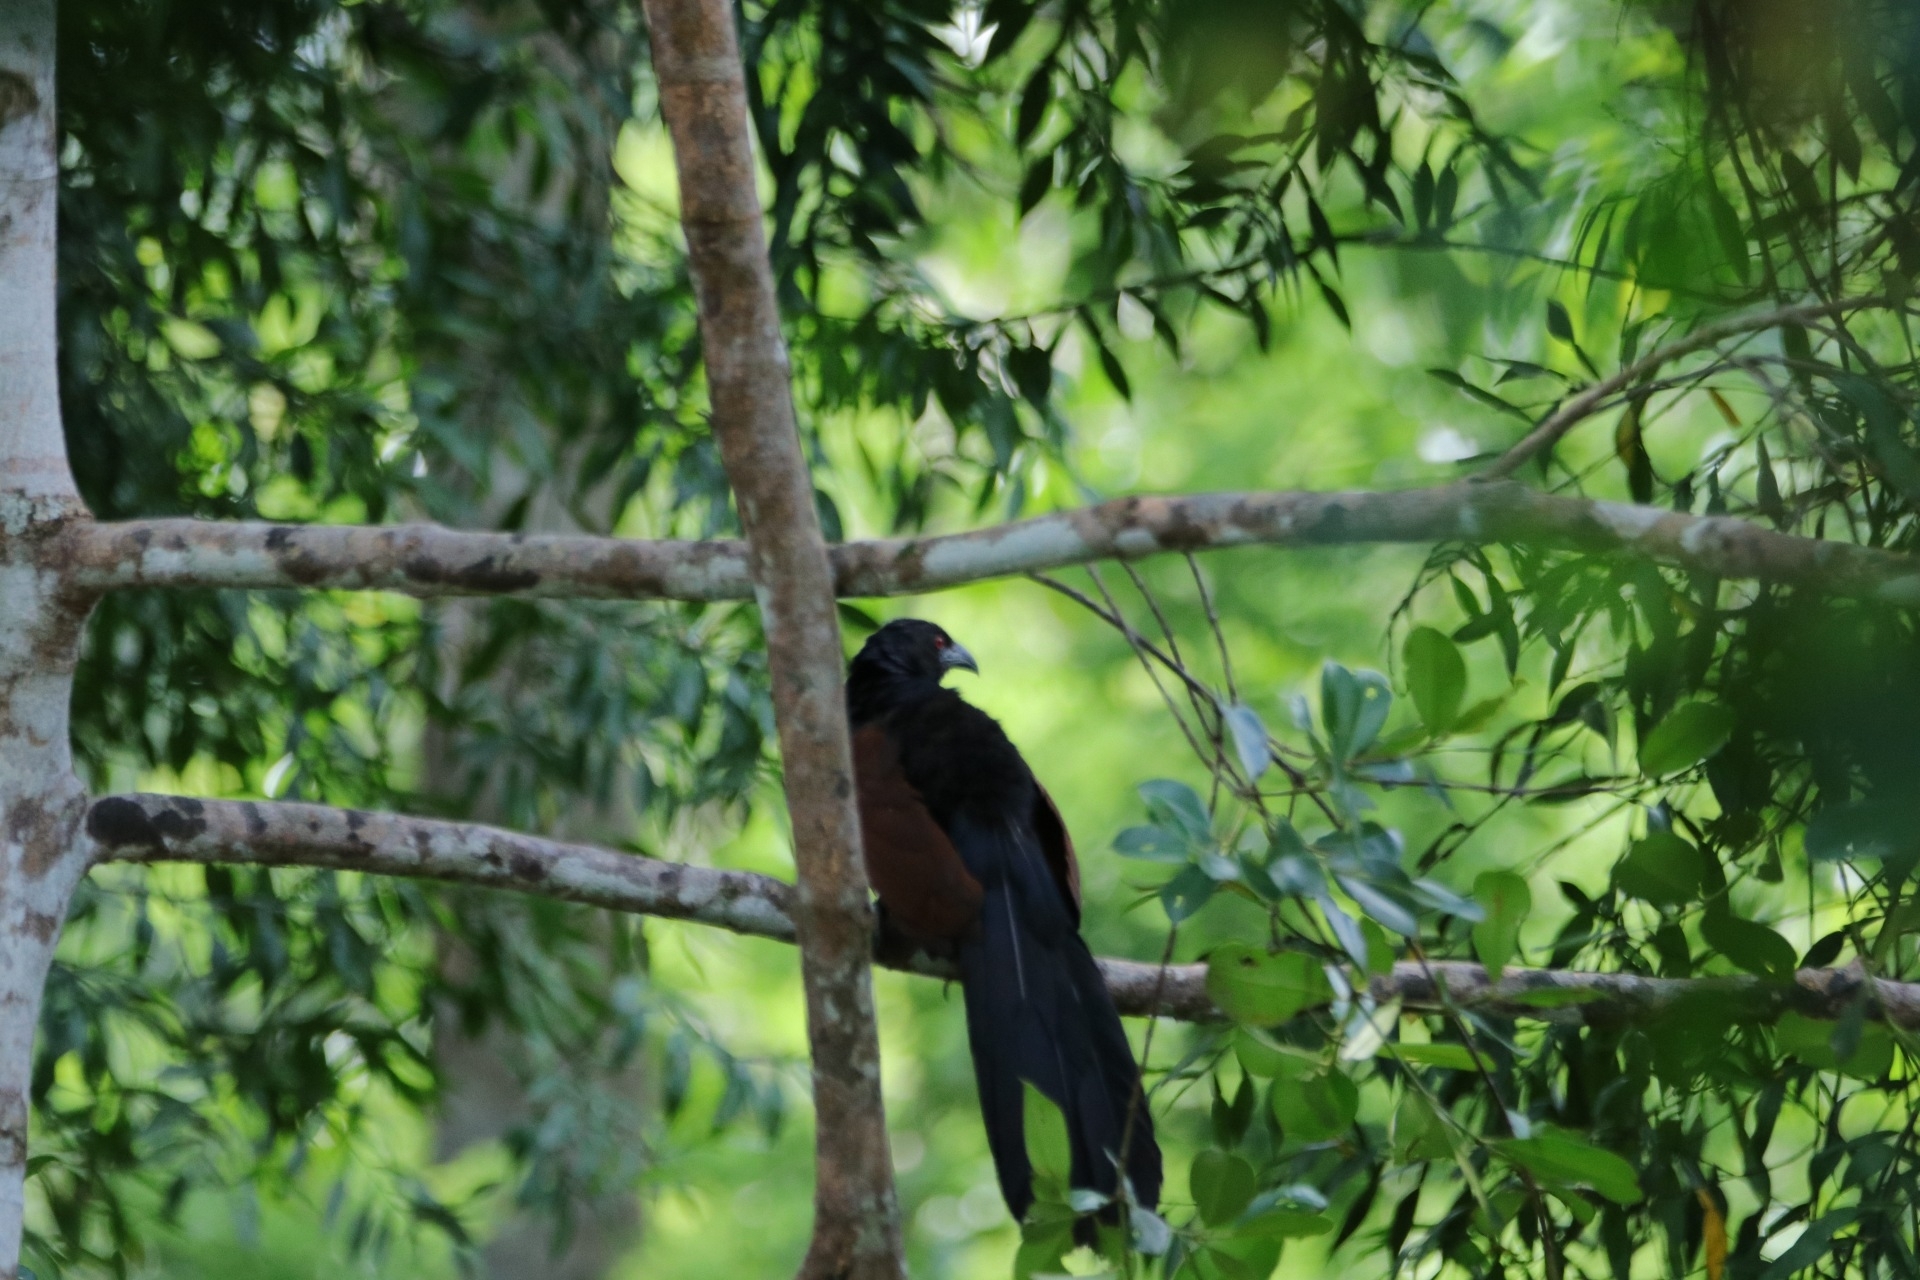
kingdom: Animalia
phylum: Chordata
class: Aves
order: Cuculiformes
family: Cuculidae
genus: Centropus
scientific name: Centropus sinensis
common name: Greater coucal
